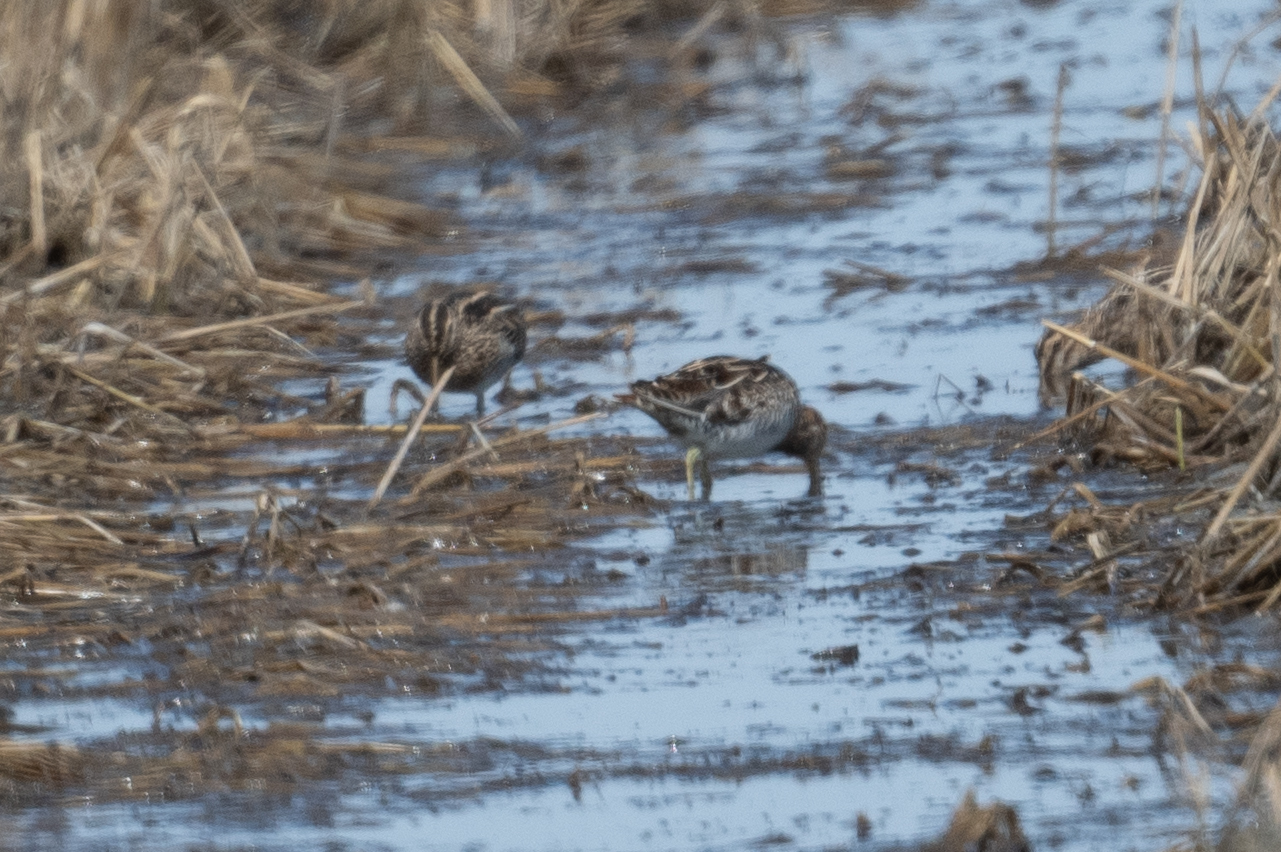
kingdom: Animalia
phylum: Chordata
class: Aves
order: Charadriiformes
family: Scolopacidae
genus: Gallinago
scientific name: Gallinago delicata
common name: Wilson's snipe
